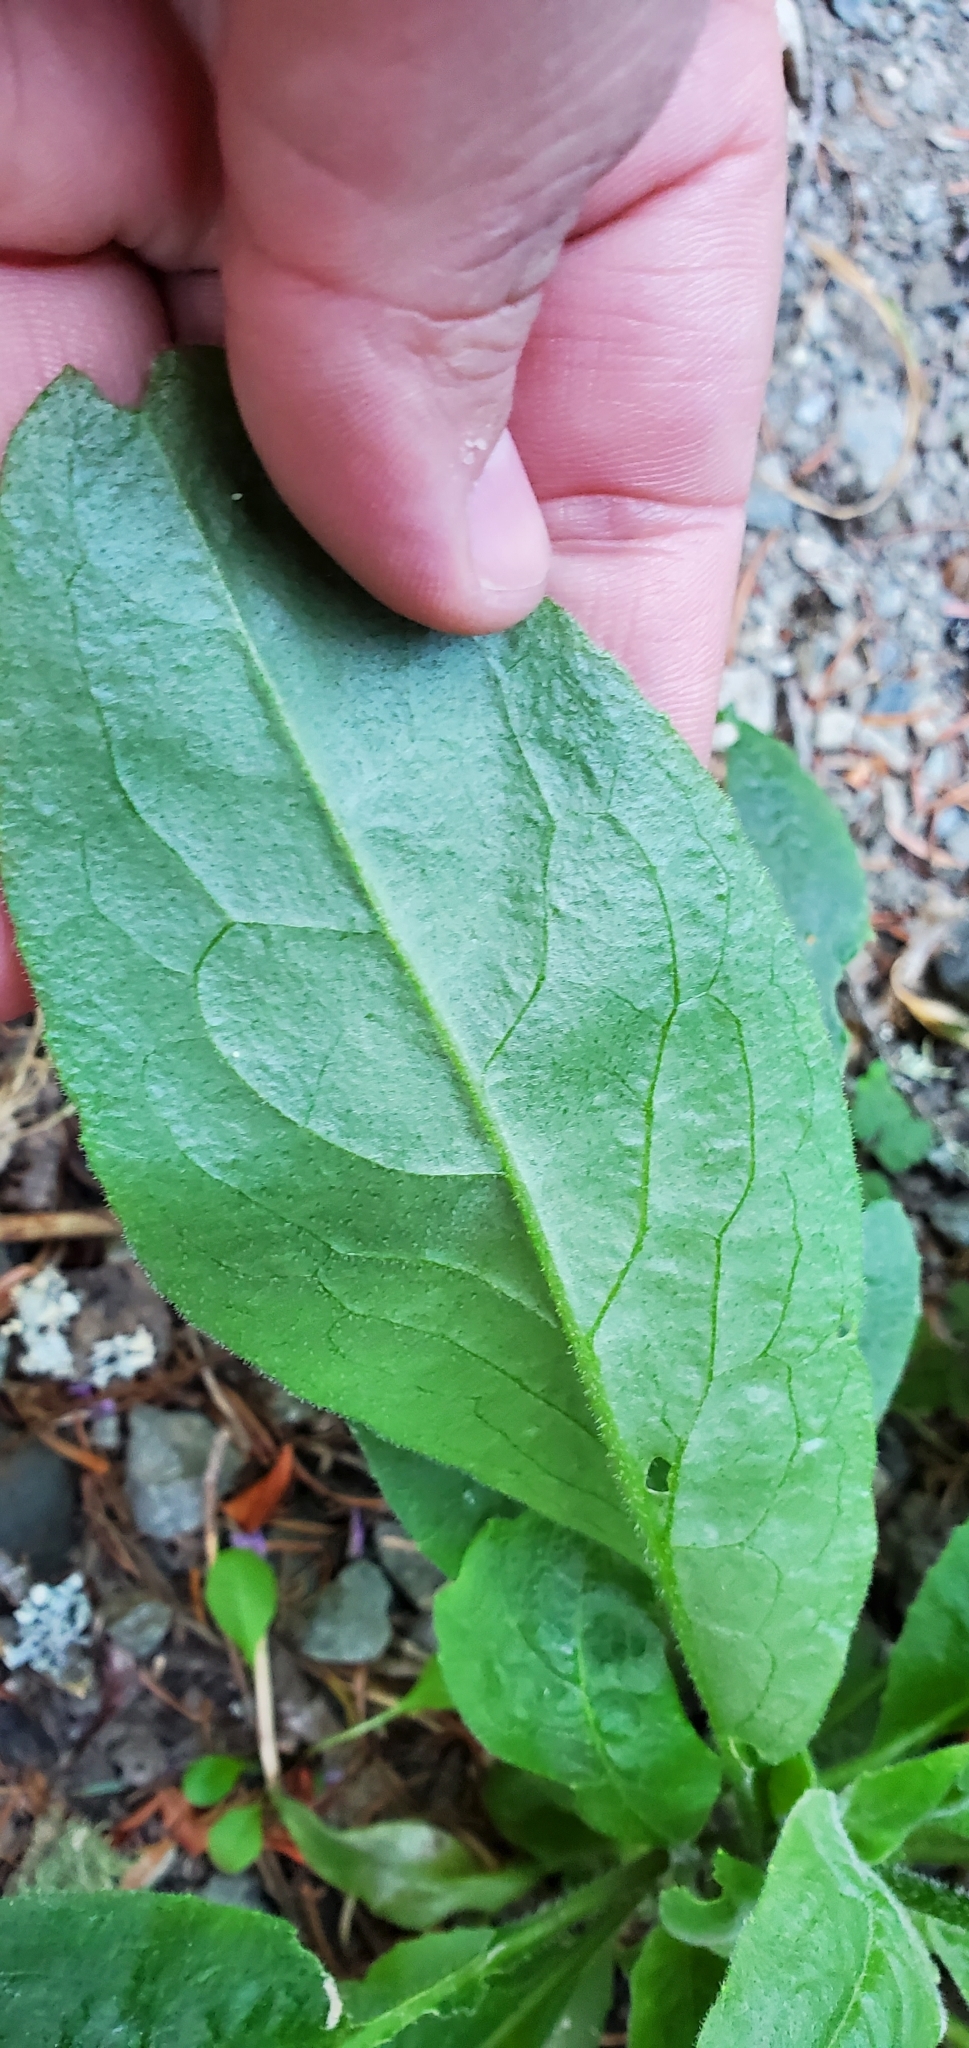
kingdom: Plantae
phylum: Tracheophyta
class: Magnoliopsida
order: Brassicales
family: Brassicaceae
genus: Hesperis
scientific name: Hesperis matronalis
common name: Dame's-violet
